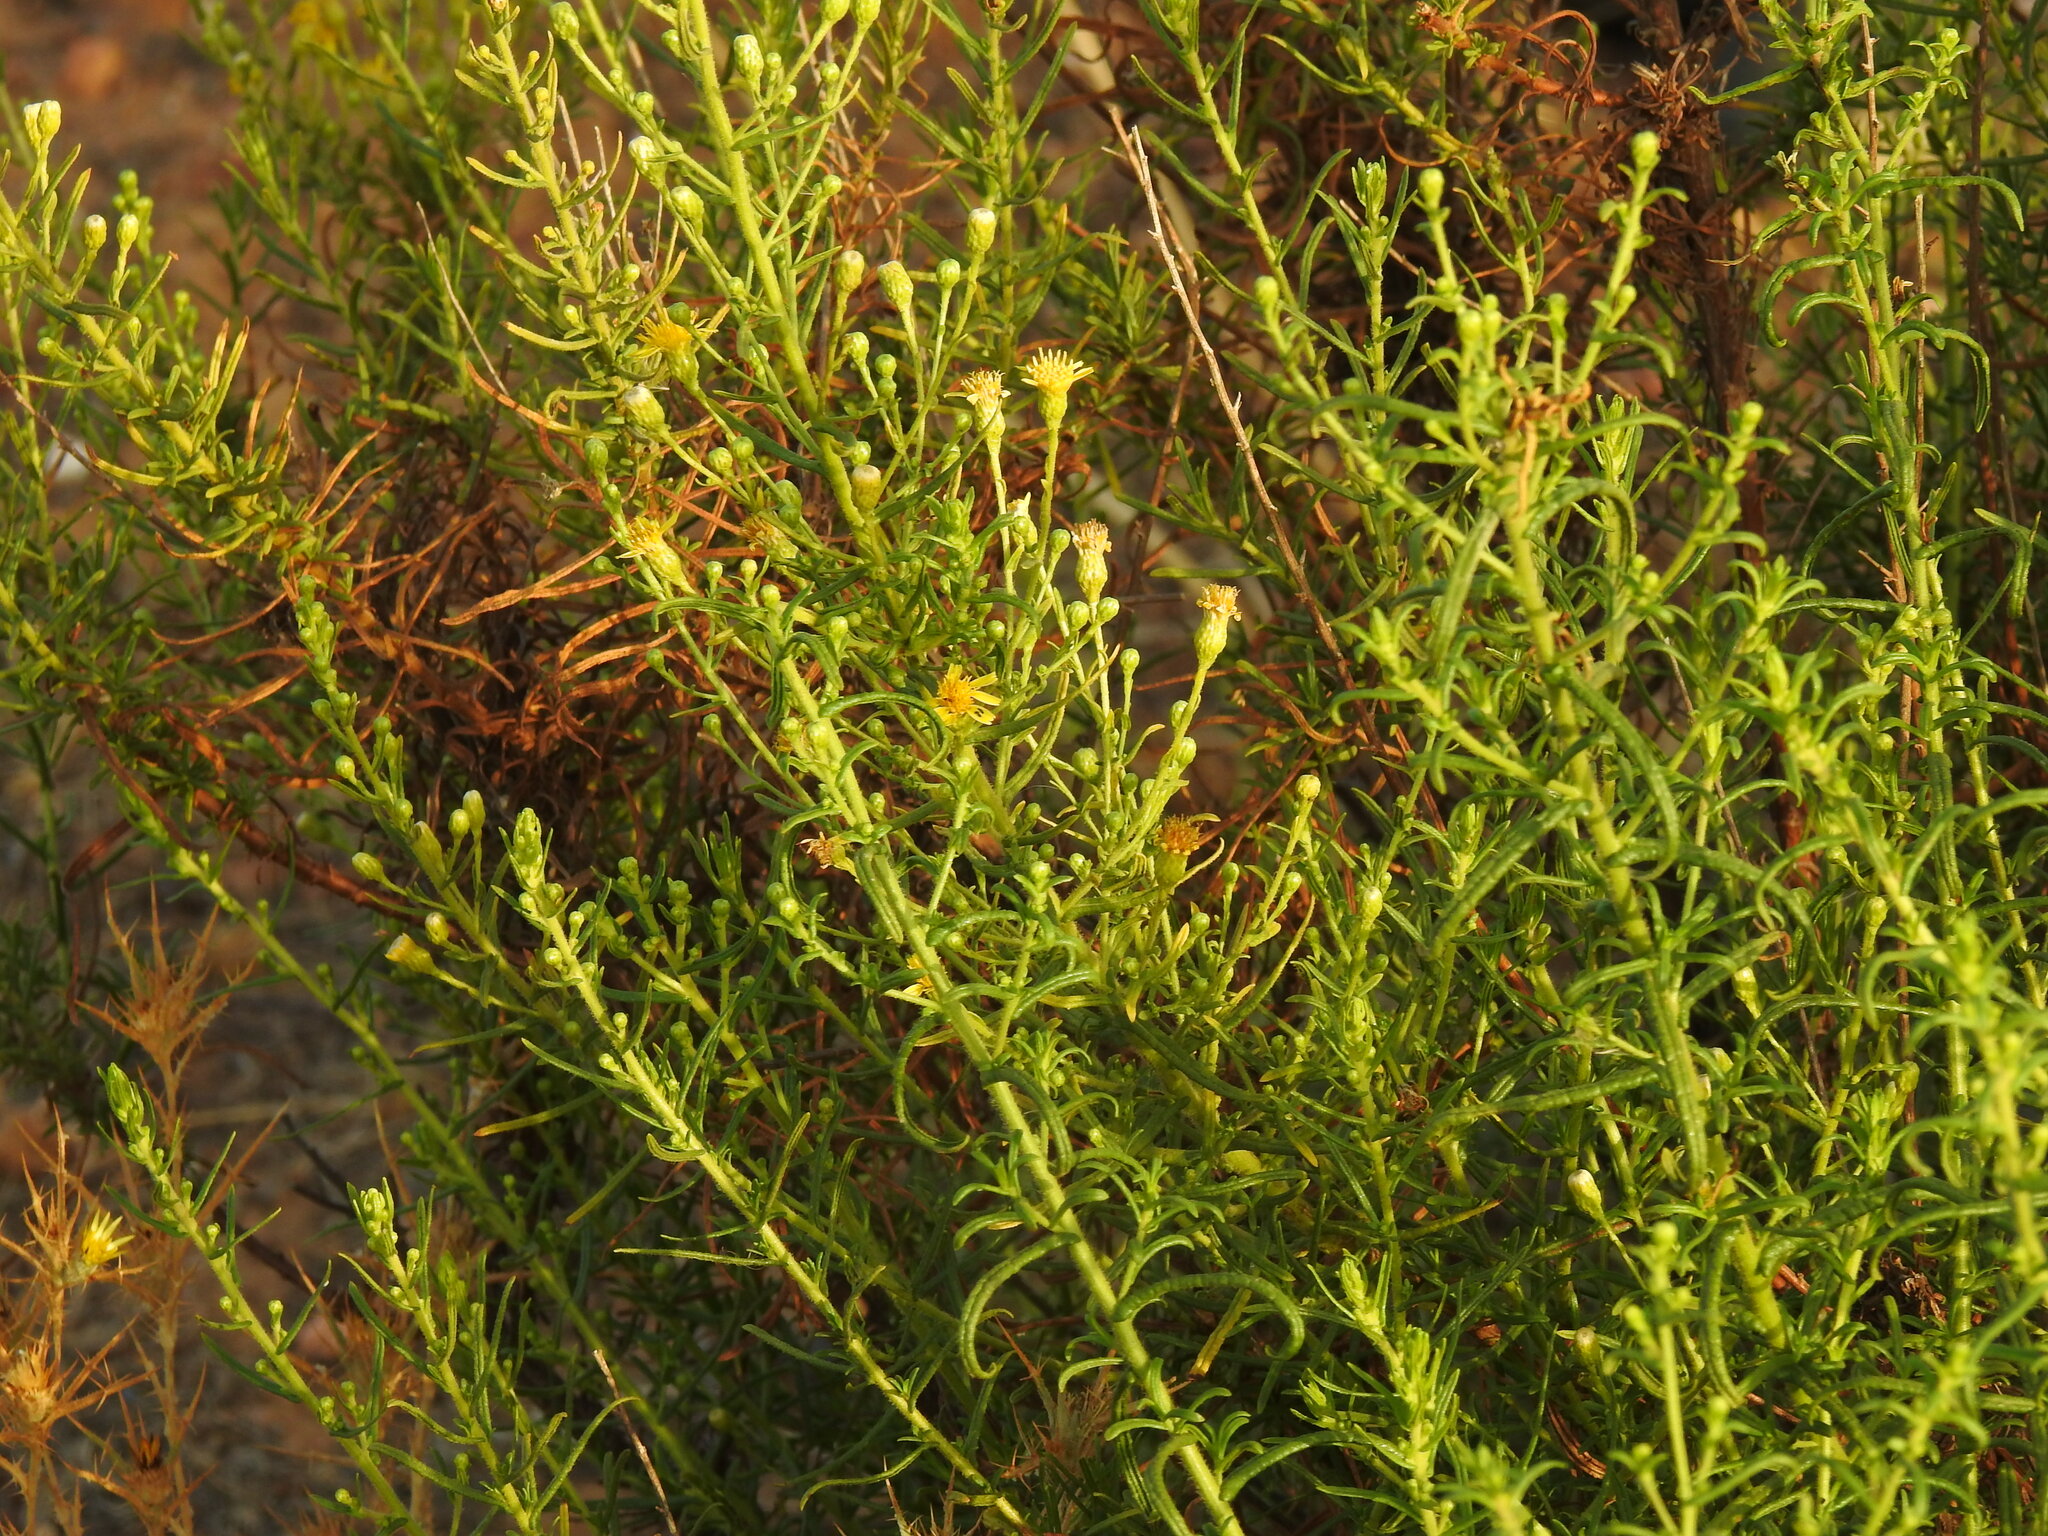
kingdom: Plantae
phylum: Tracheophyta
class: Magnoliopsida
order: Asterales
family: Asteraceae
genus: Dittrichia
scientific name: Dittrichia viscosa
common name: Woody fleabane
